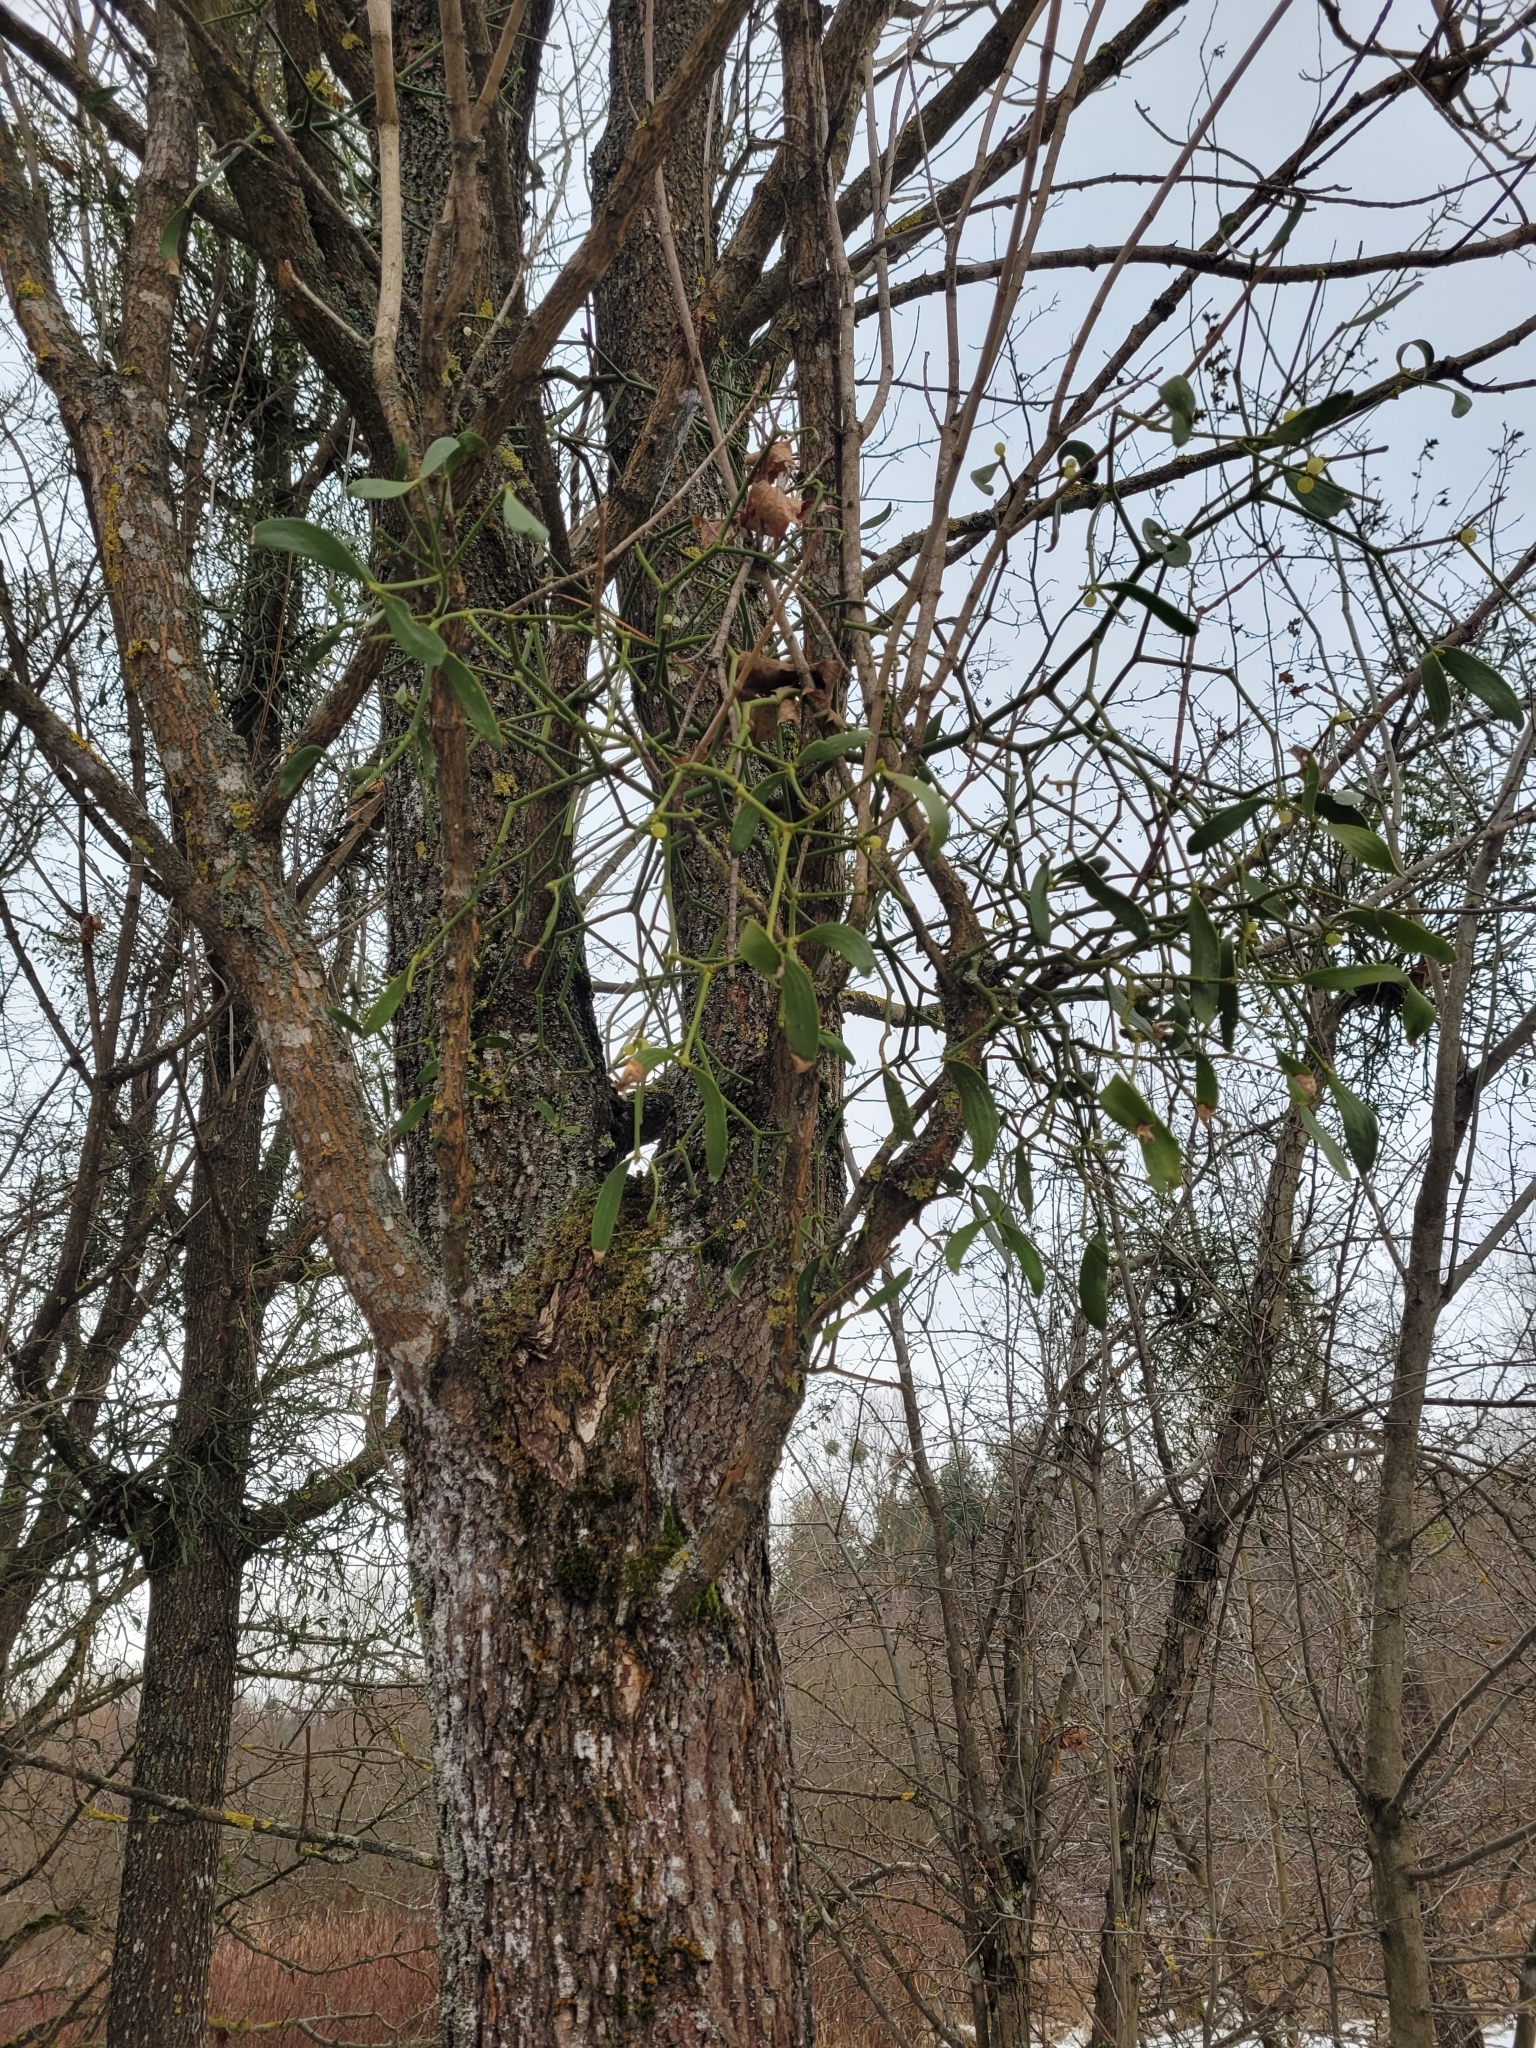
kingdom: Plantae
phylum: Tracheophyta
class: Magnoliopsida
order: Santalales
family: Viscaceae
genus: Viscum
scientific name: Viscum album
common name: Mistletoe
